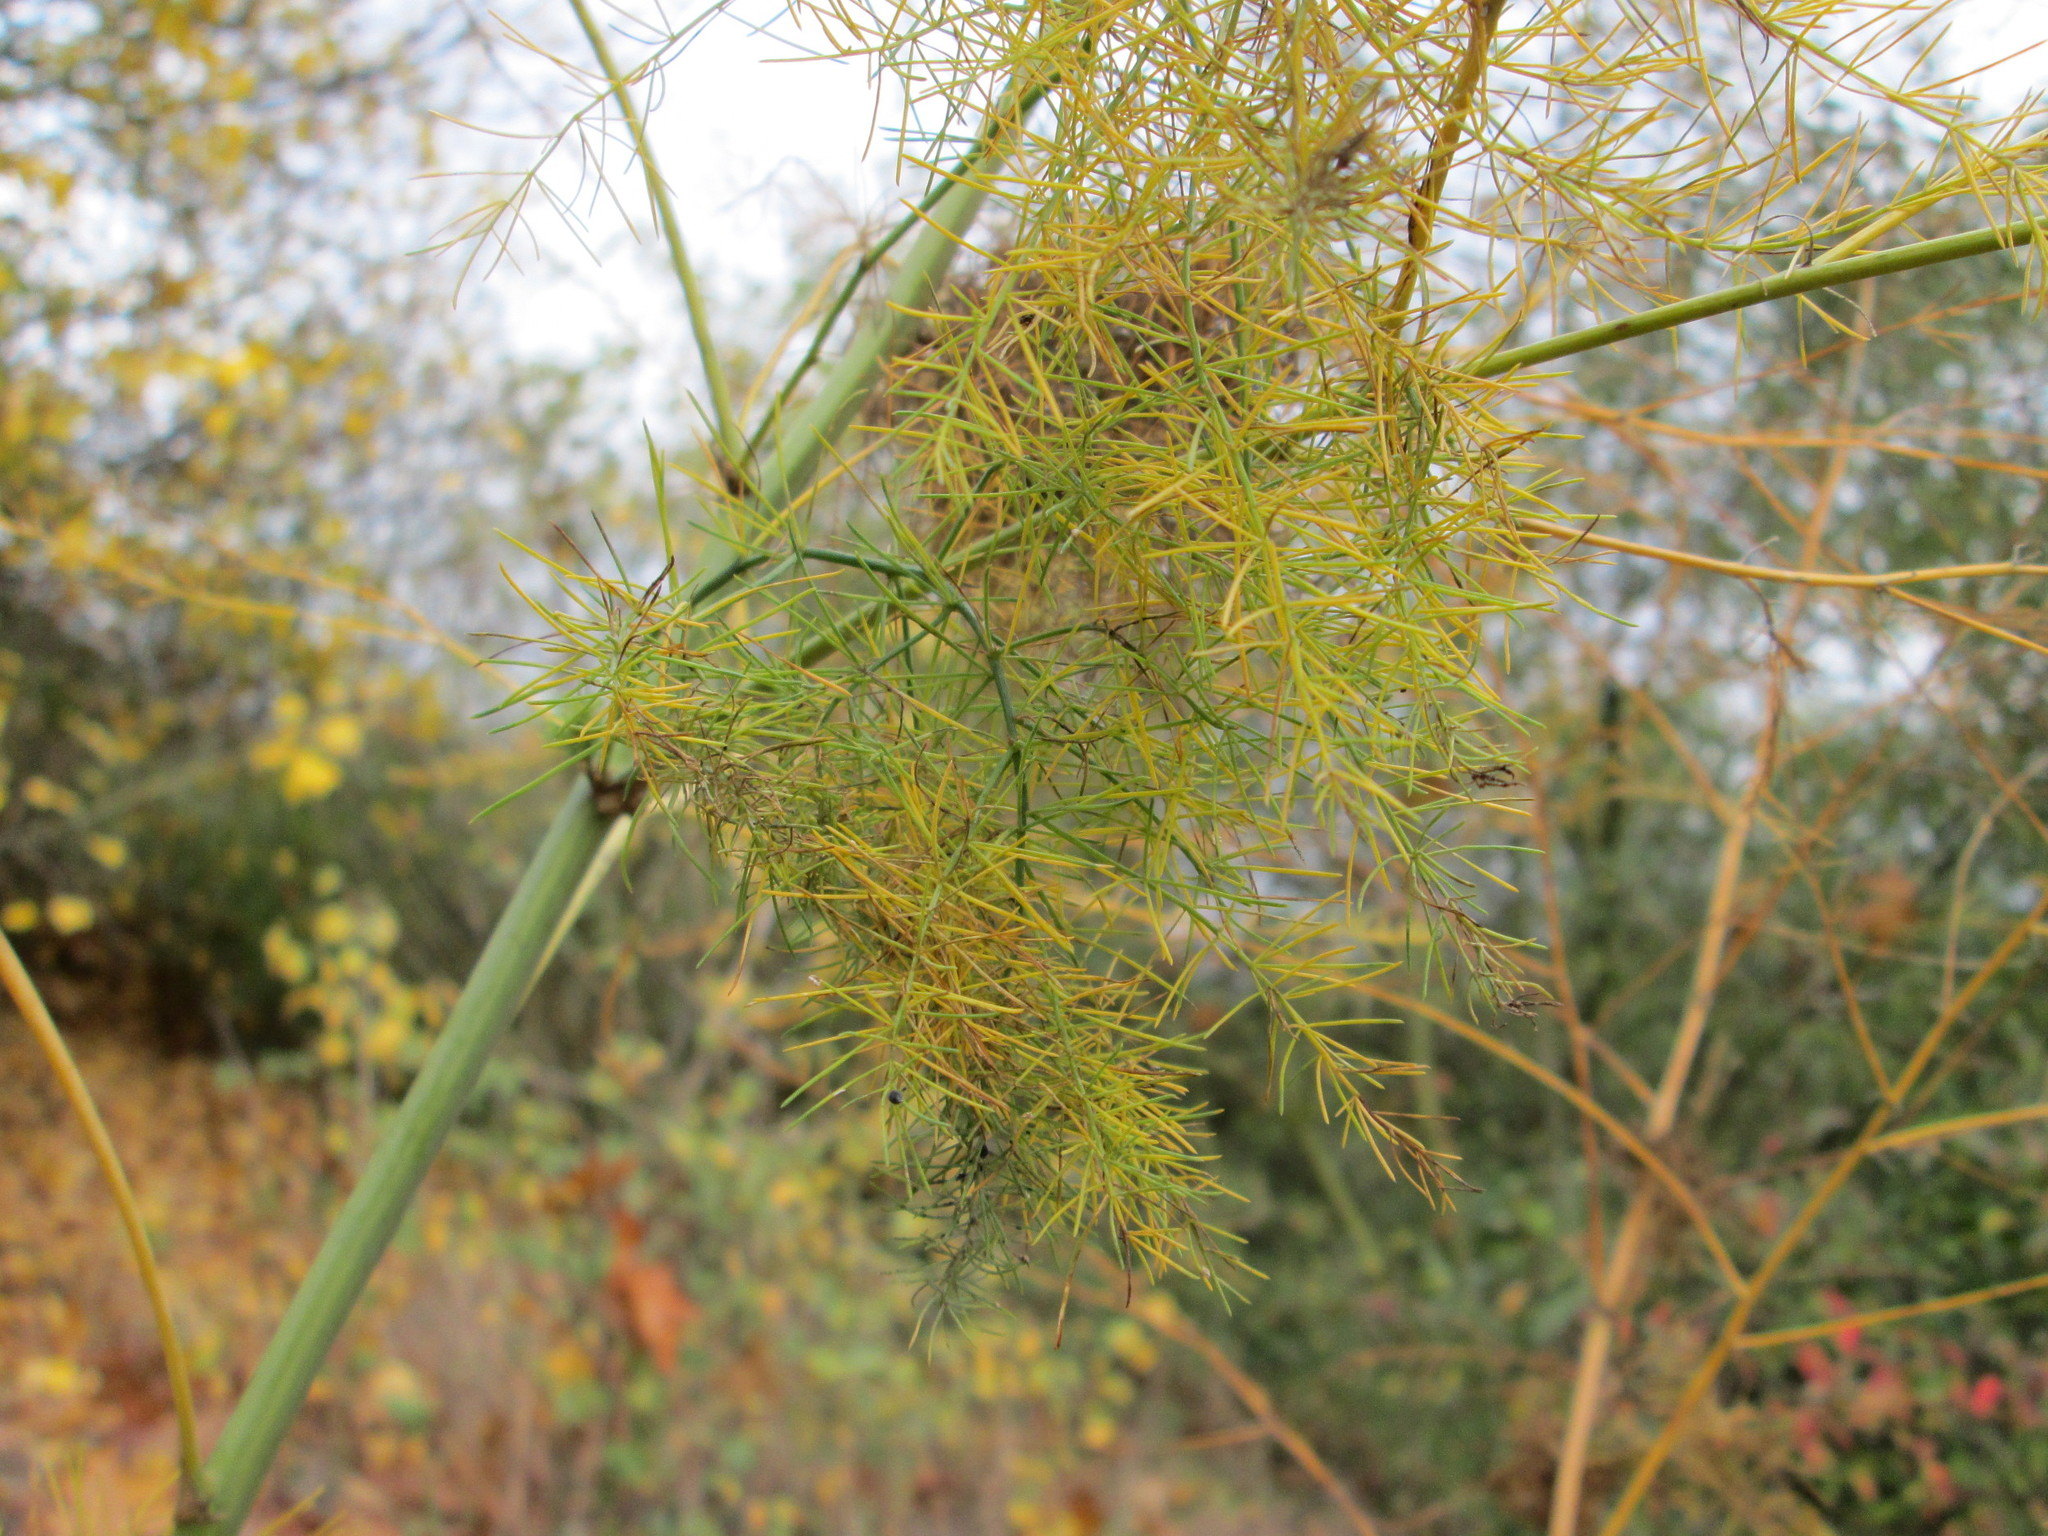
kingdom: Plantae
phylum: Tracheophyta
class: Liliopsida
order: Asparagales
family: Asparagaceae
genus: Asparagus
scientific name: Asparagus officinalis
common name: Garden asparagus
